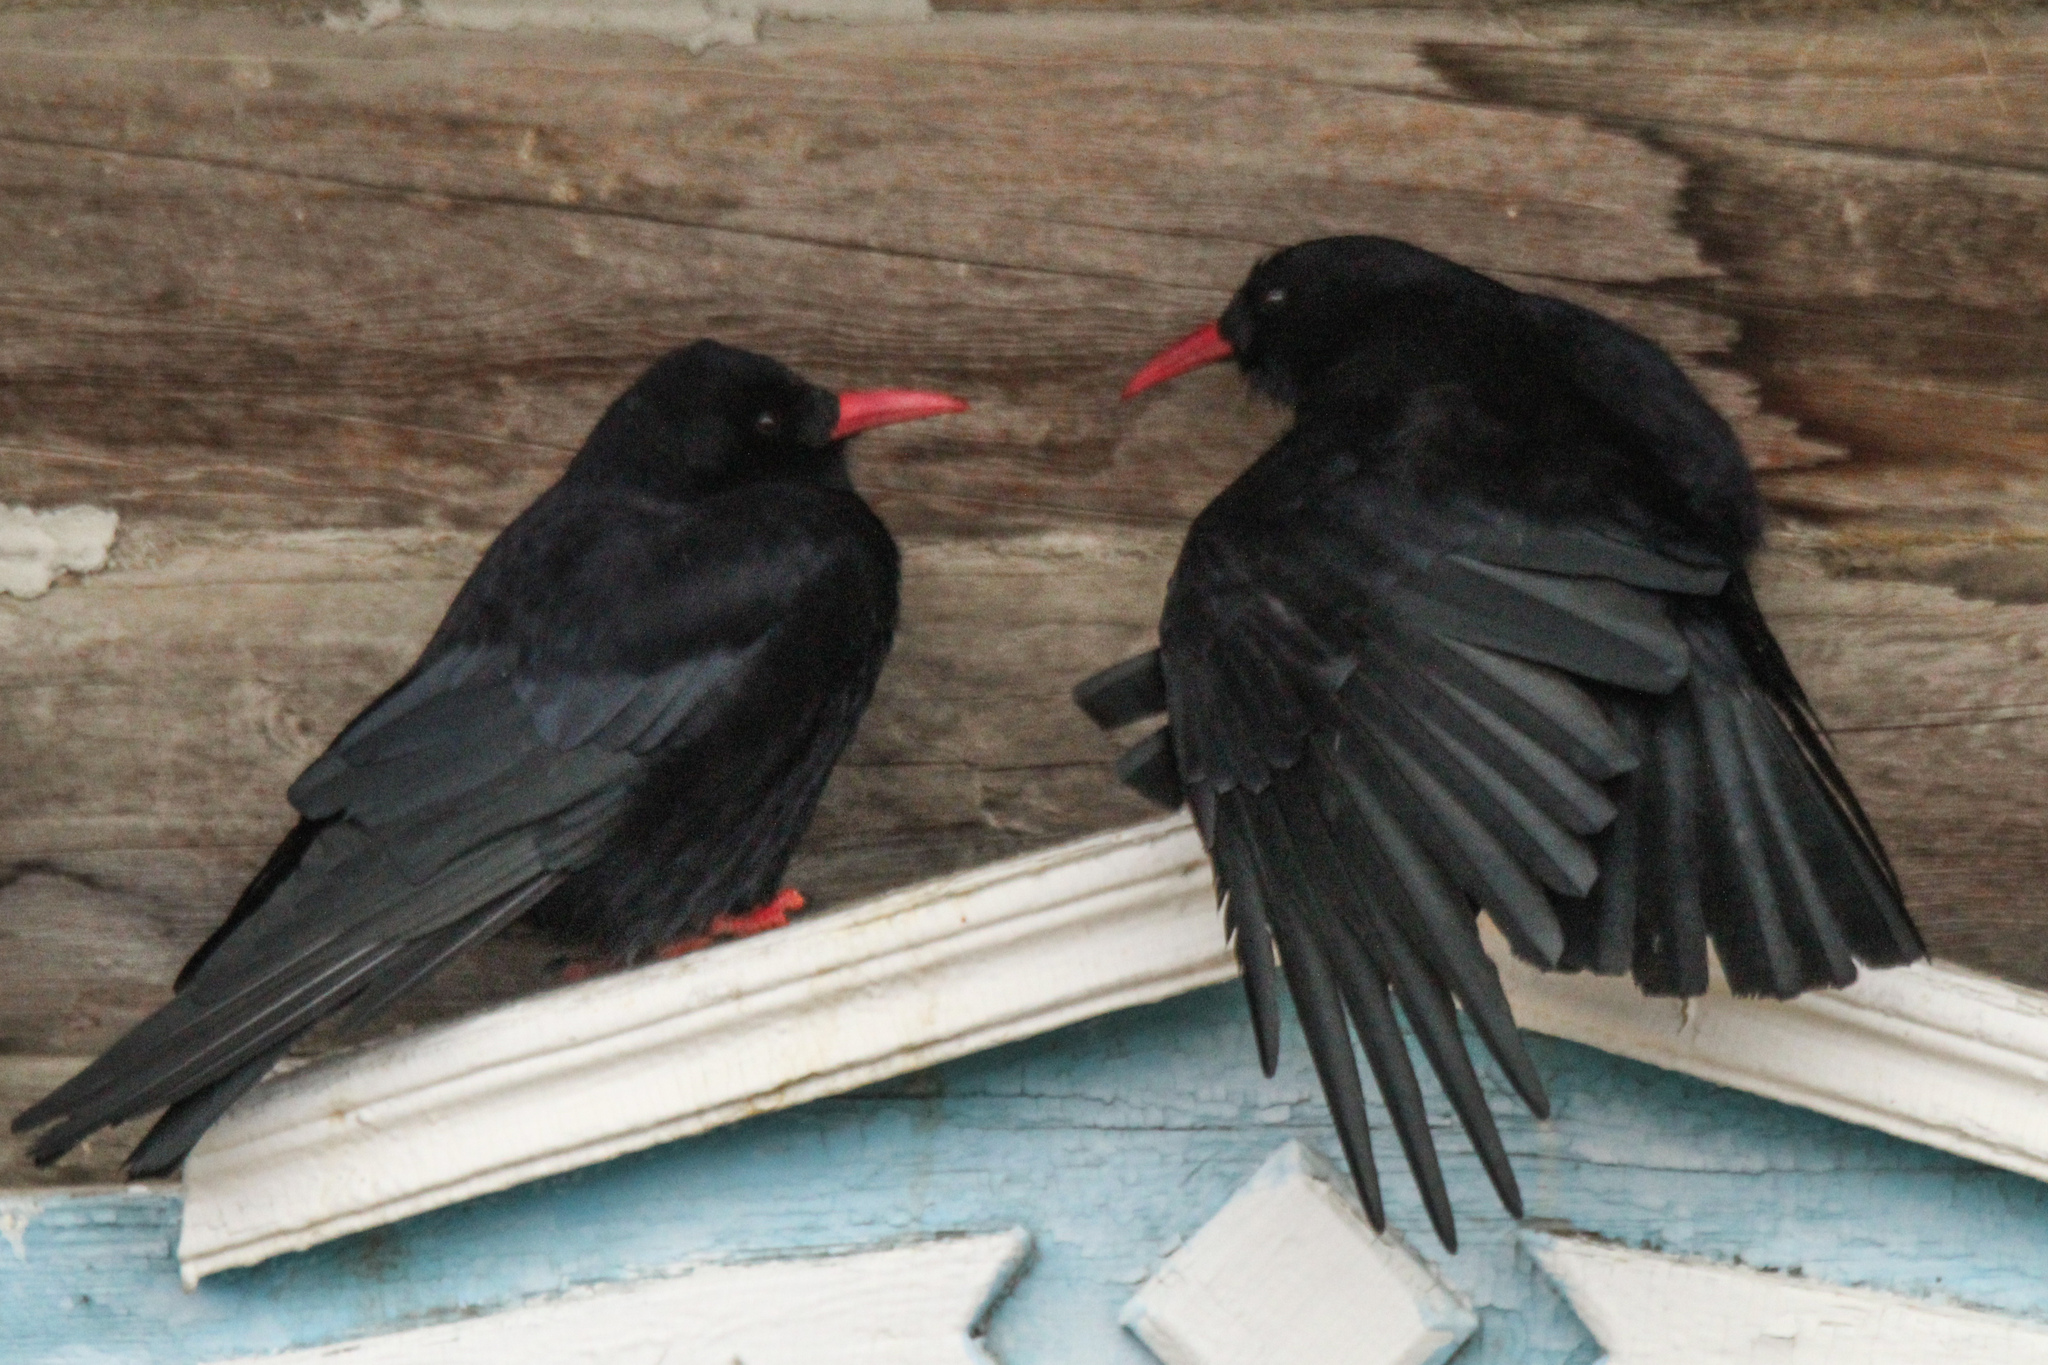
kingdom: Animalia
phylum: Chordata
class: Aves
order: Passeriformes
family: Corvidae
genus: Pyrrhocorax
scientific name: Pyrrhocorax pyrrhocorax
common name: Red-billed chough
